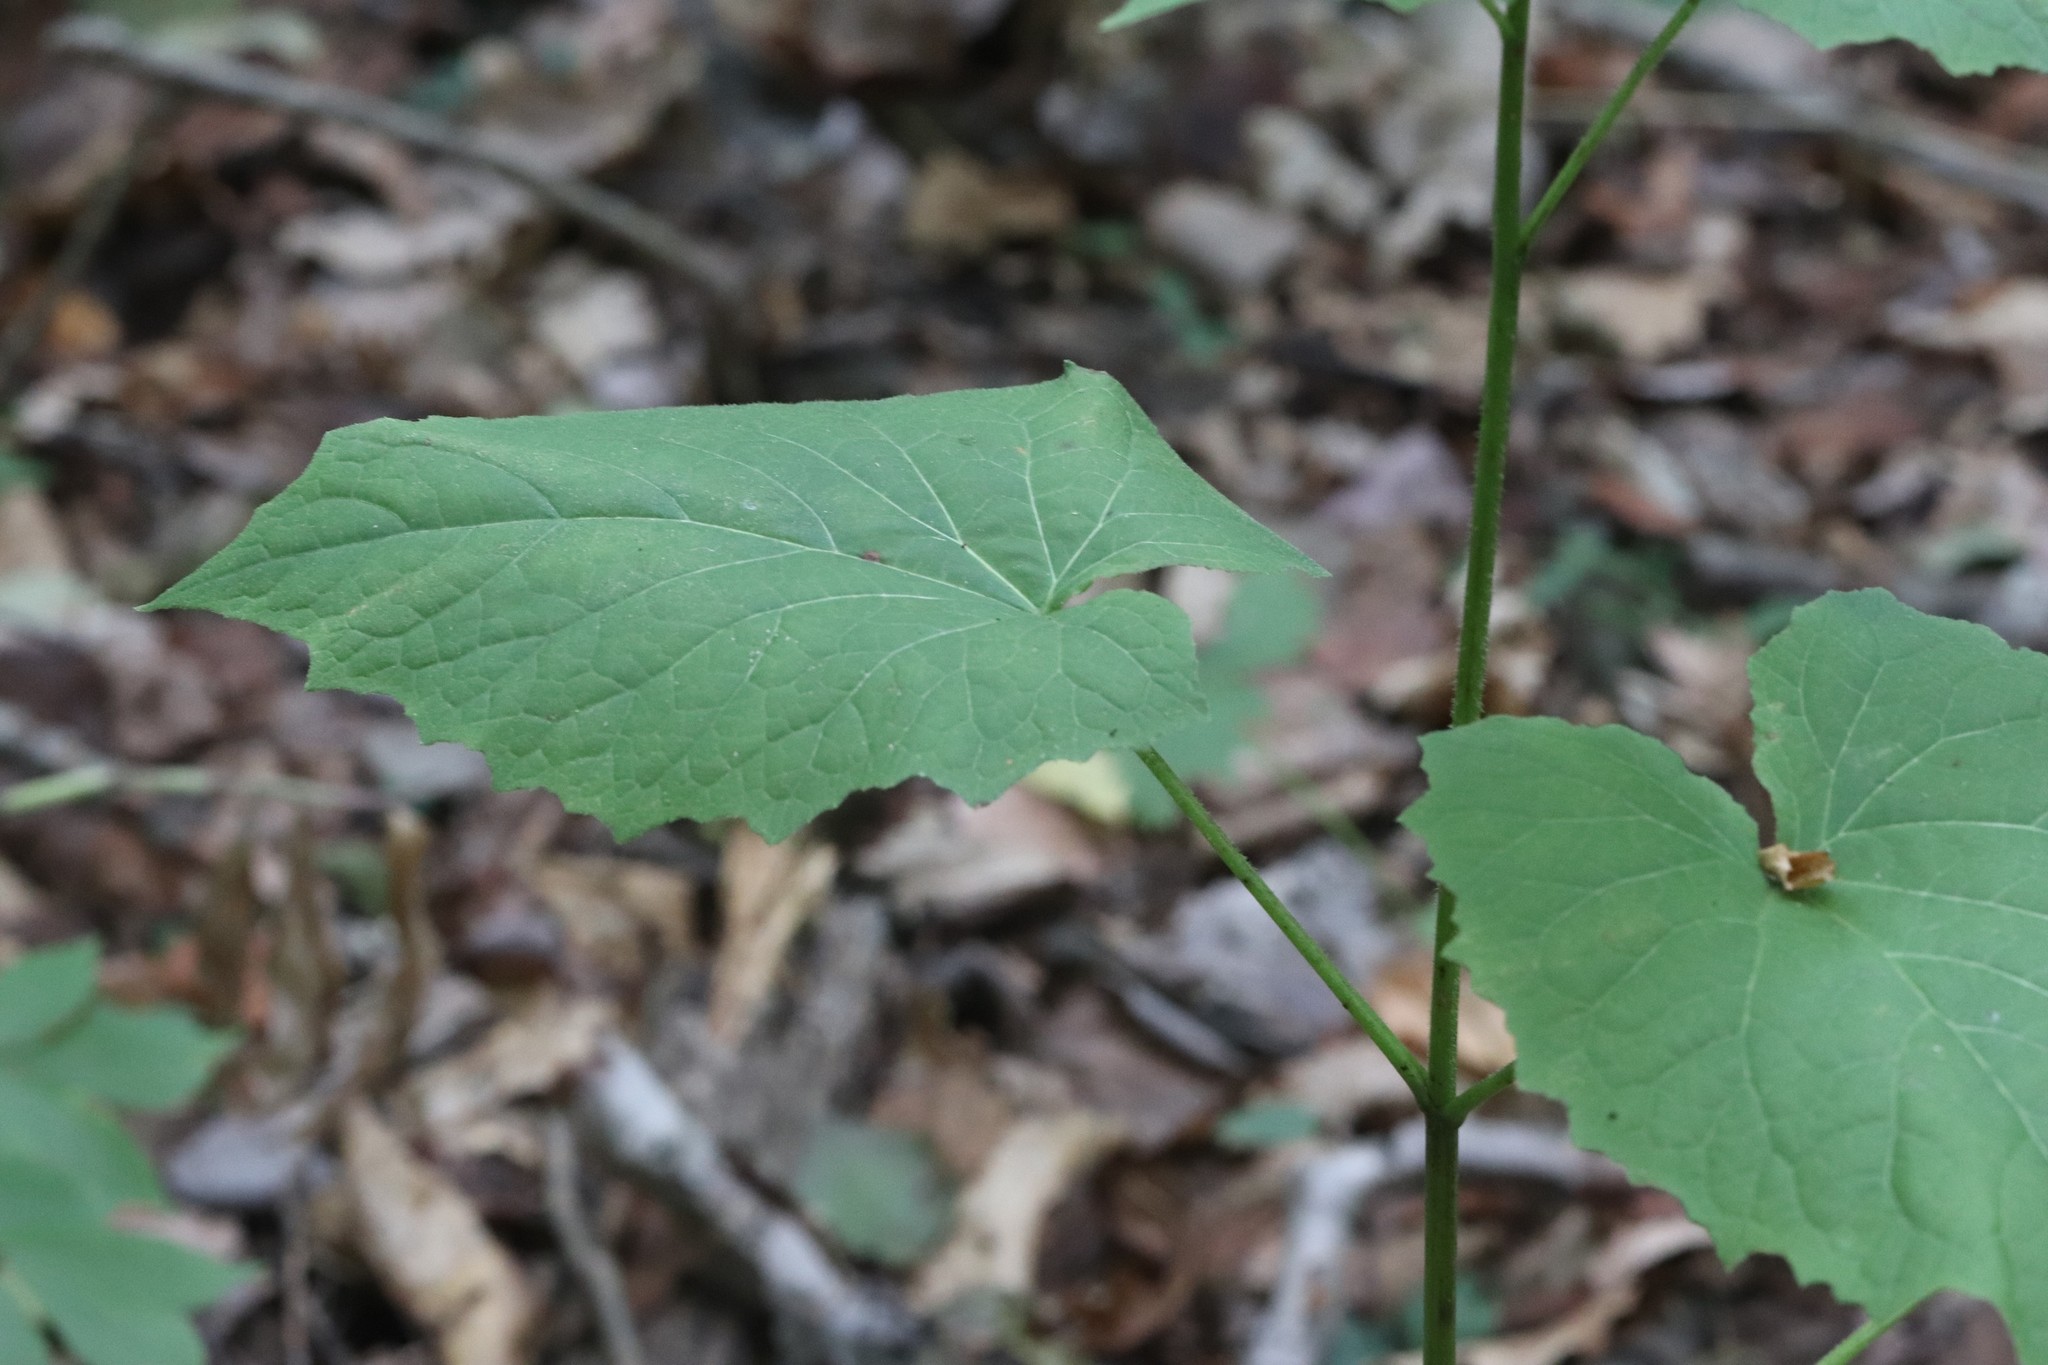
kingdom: Plantae
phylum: Tracheophyta
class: Magnoliopsida
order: Asterales
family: Asteraceae
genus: Nabalus
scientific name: Nabalus tatarinowii
